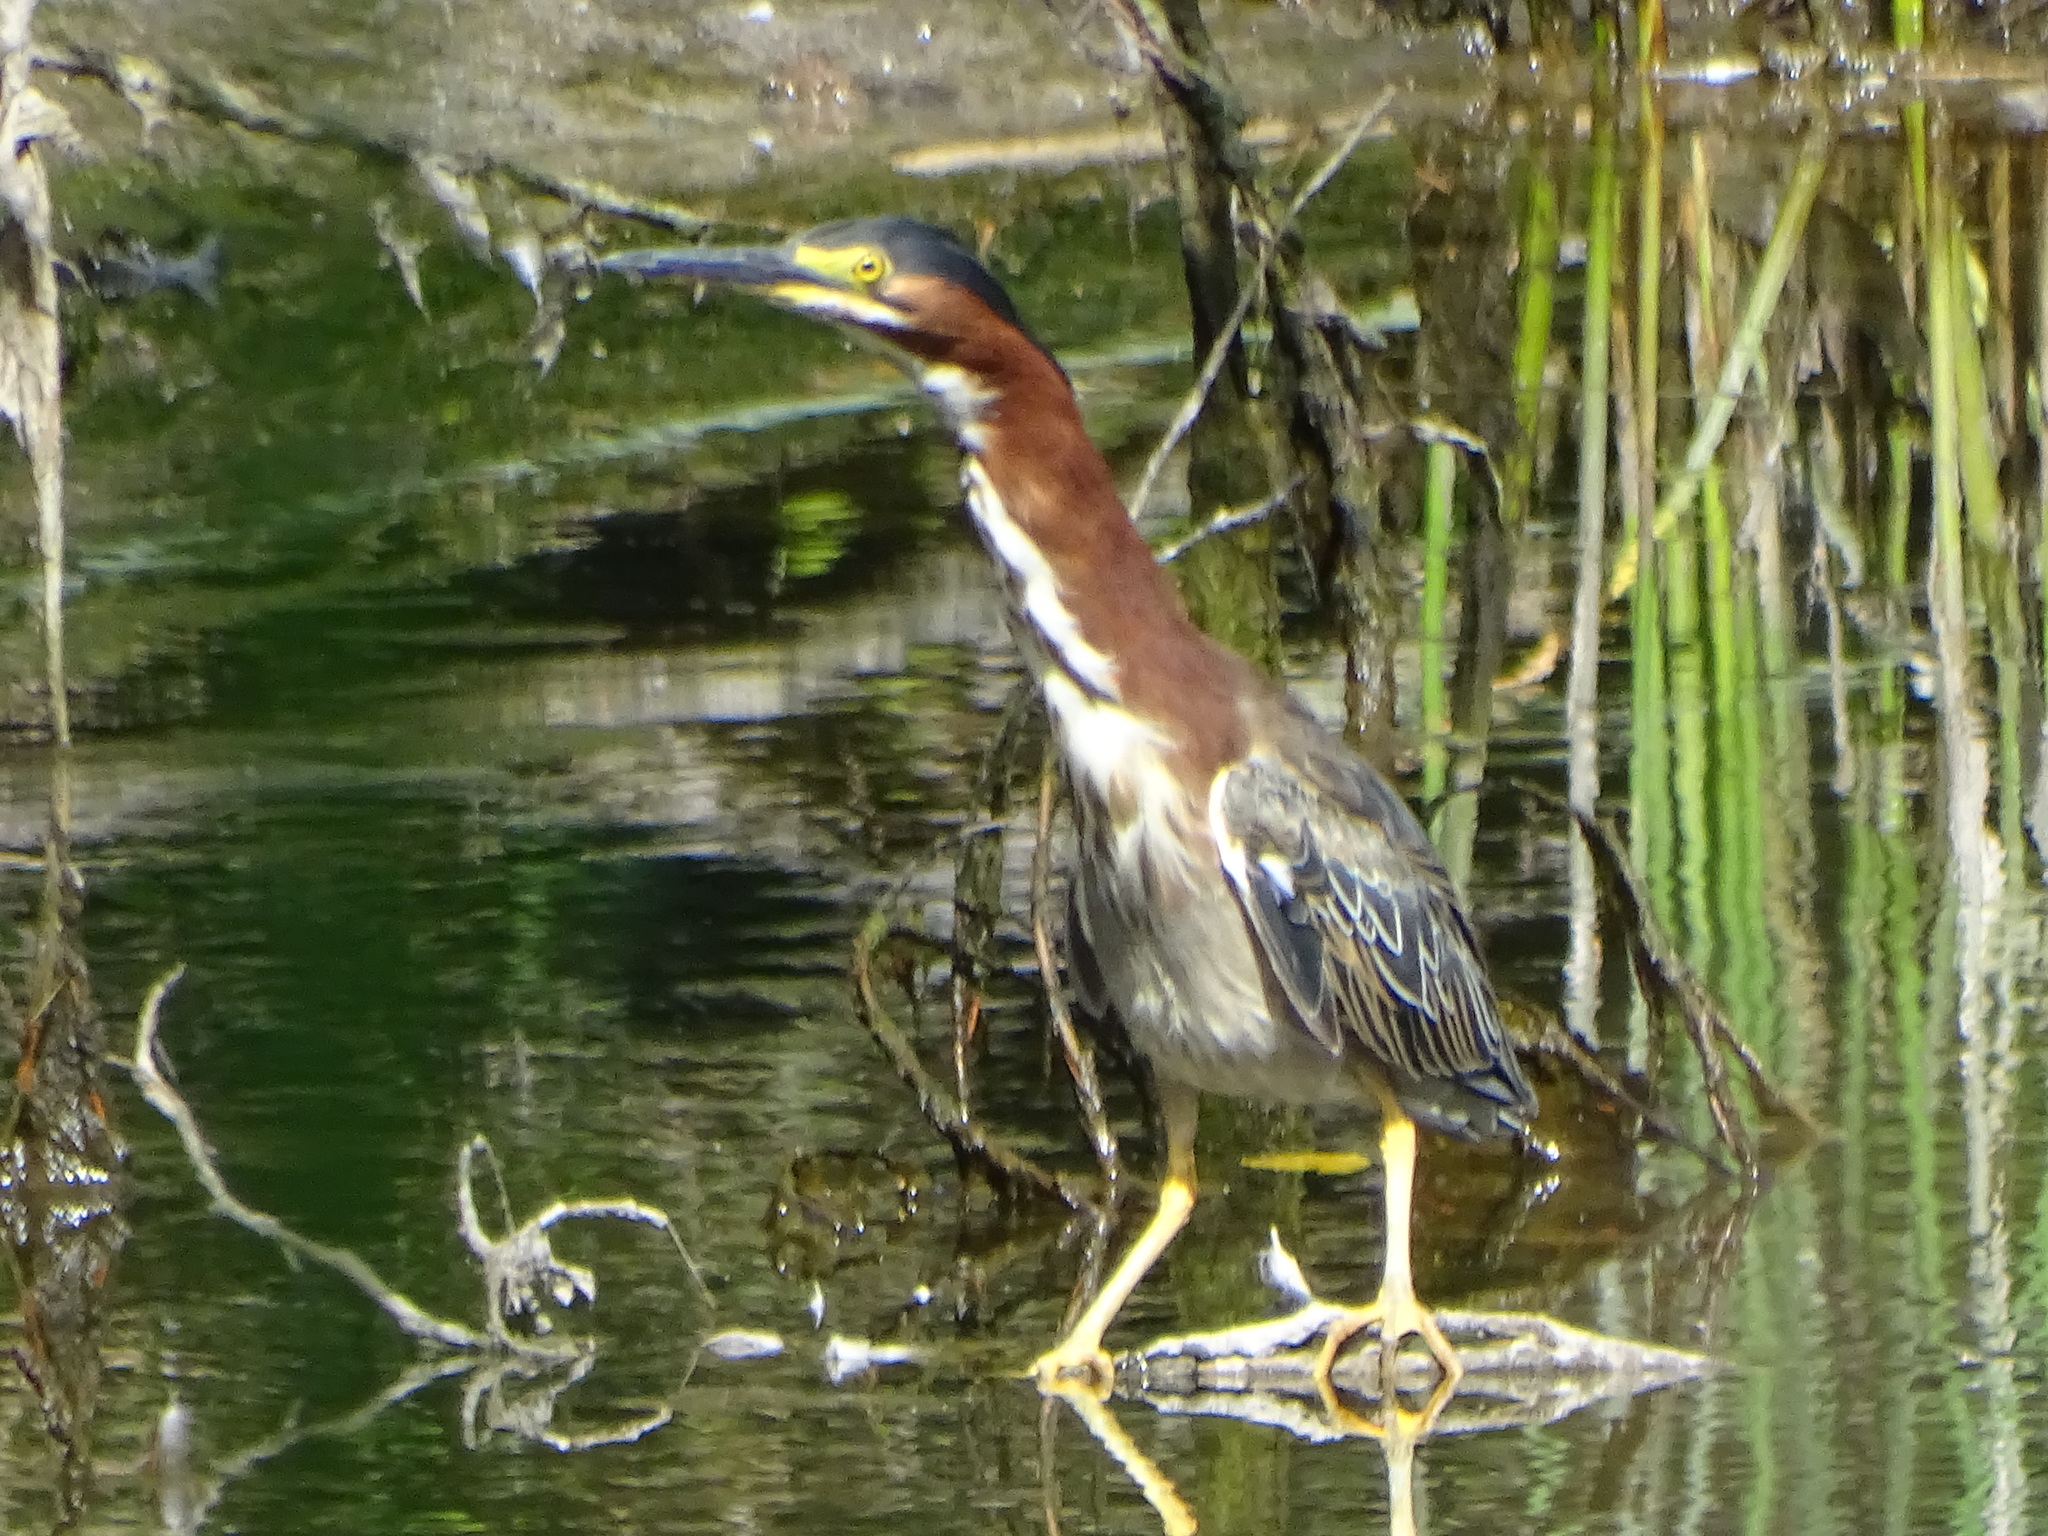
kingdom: Animalia
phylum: Chordata
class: Aves
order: Pelecaniformes
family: Ardeidae
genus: Butorides
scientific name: Butorides virescens
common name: Green heron
